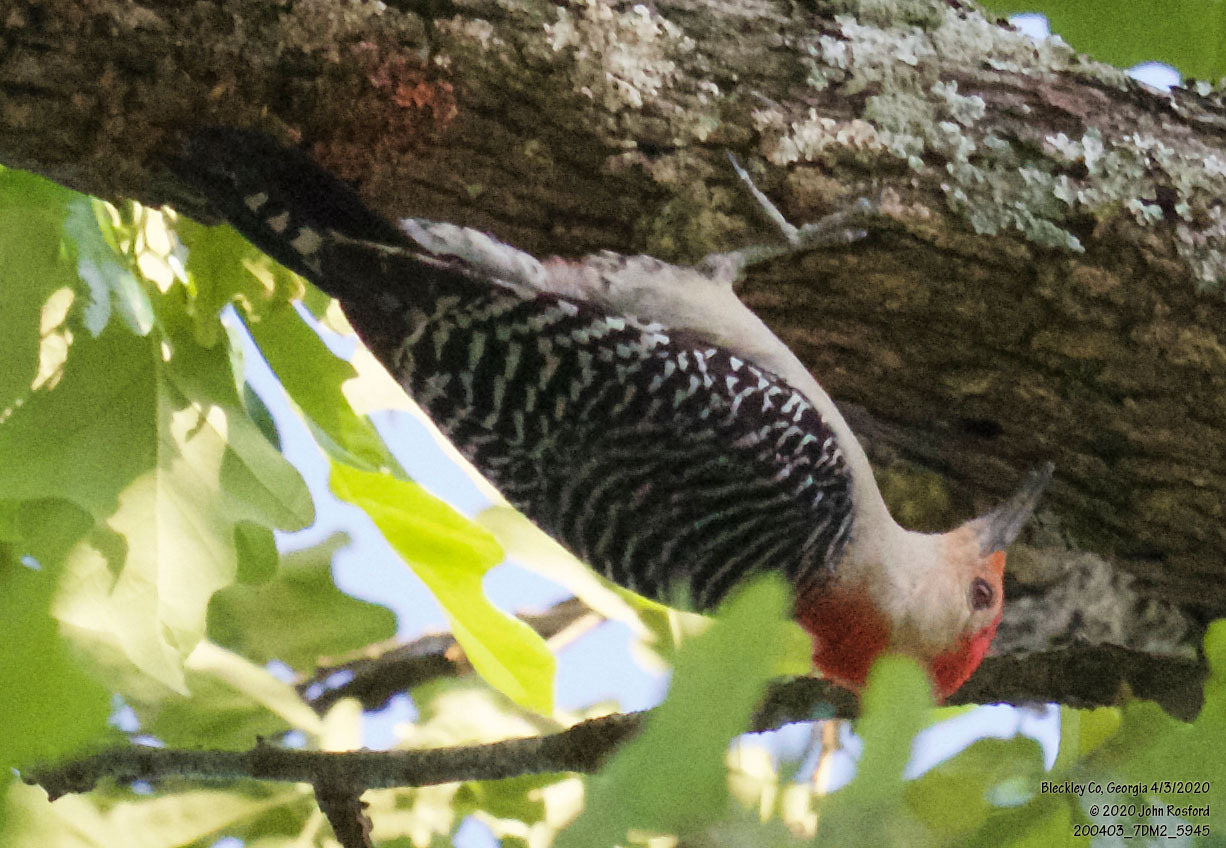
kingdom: Animalia
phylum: Chordata
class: Aves
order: Piciformes
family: Picidae
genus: Melanerpes
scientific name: Melanerpes carolinus
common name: Red-bellied woodpecker
